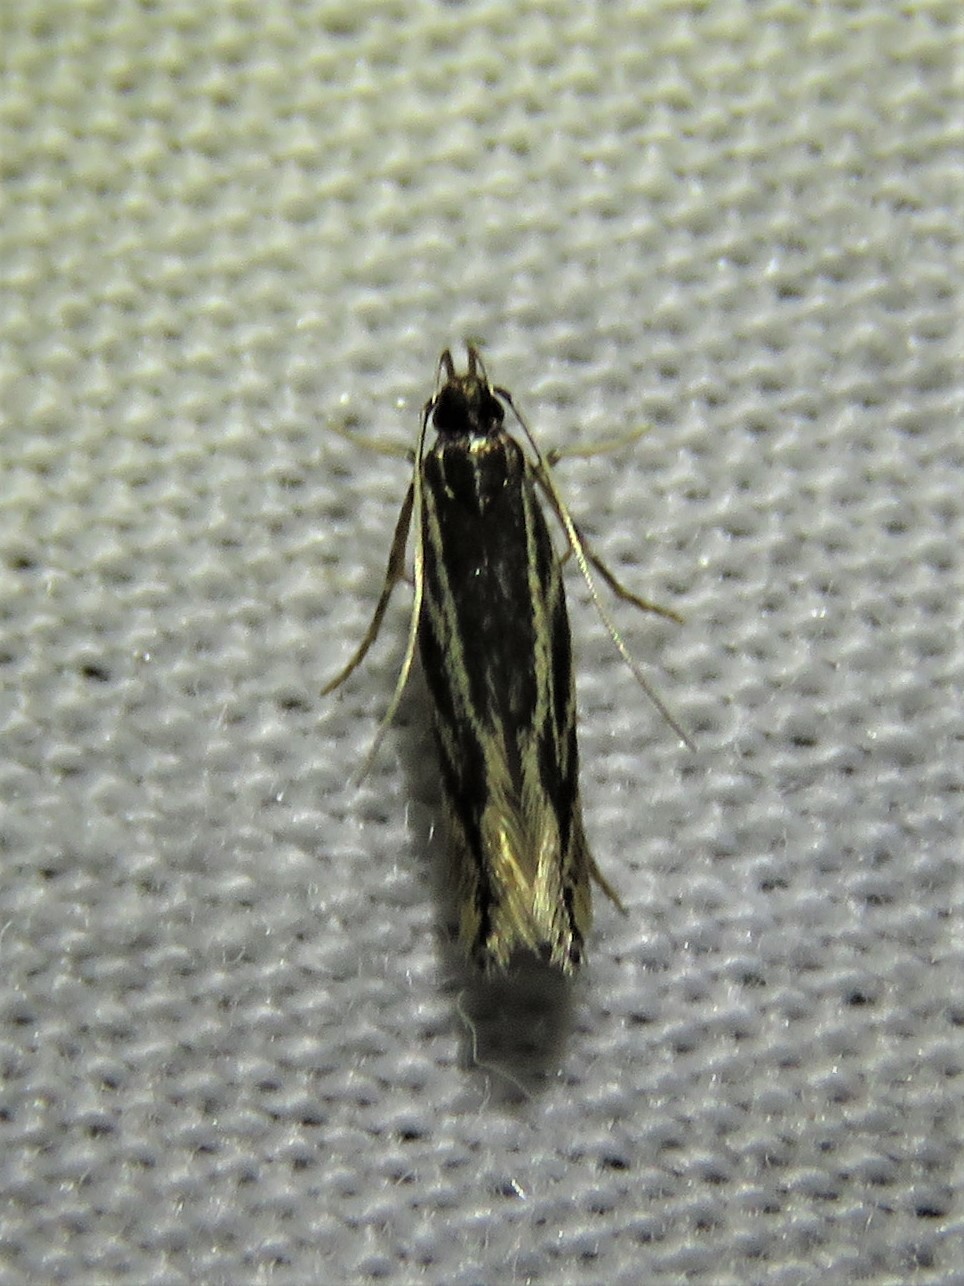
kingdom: Animalia
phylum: Arthropoda
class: Insecta
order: Lepidoptera
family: Cosmopterigidae
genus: Eralea
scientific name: Eralea albalineella
